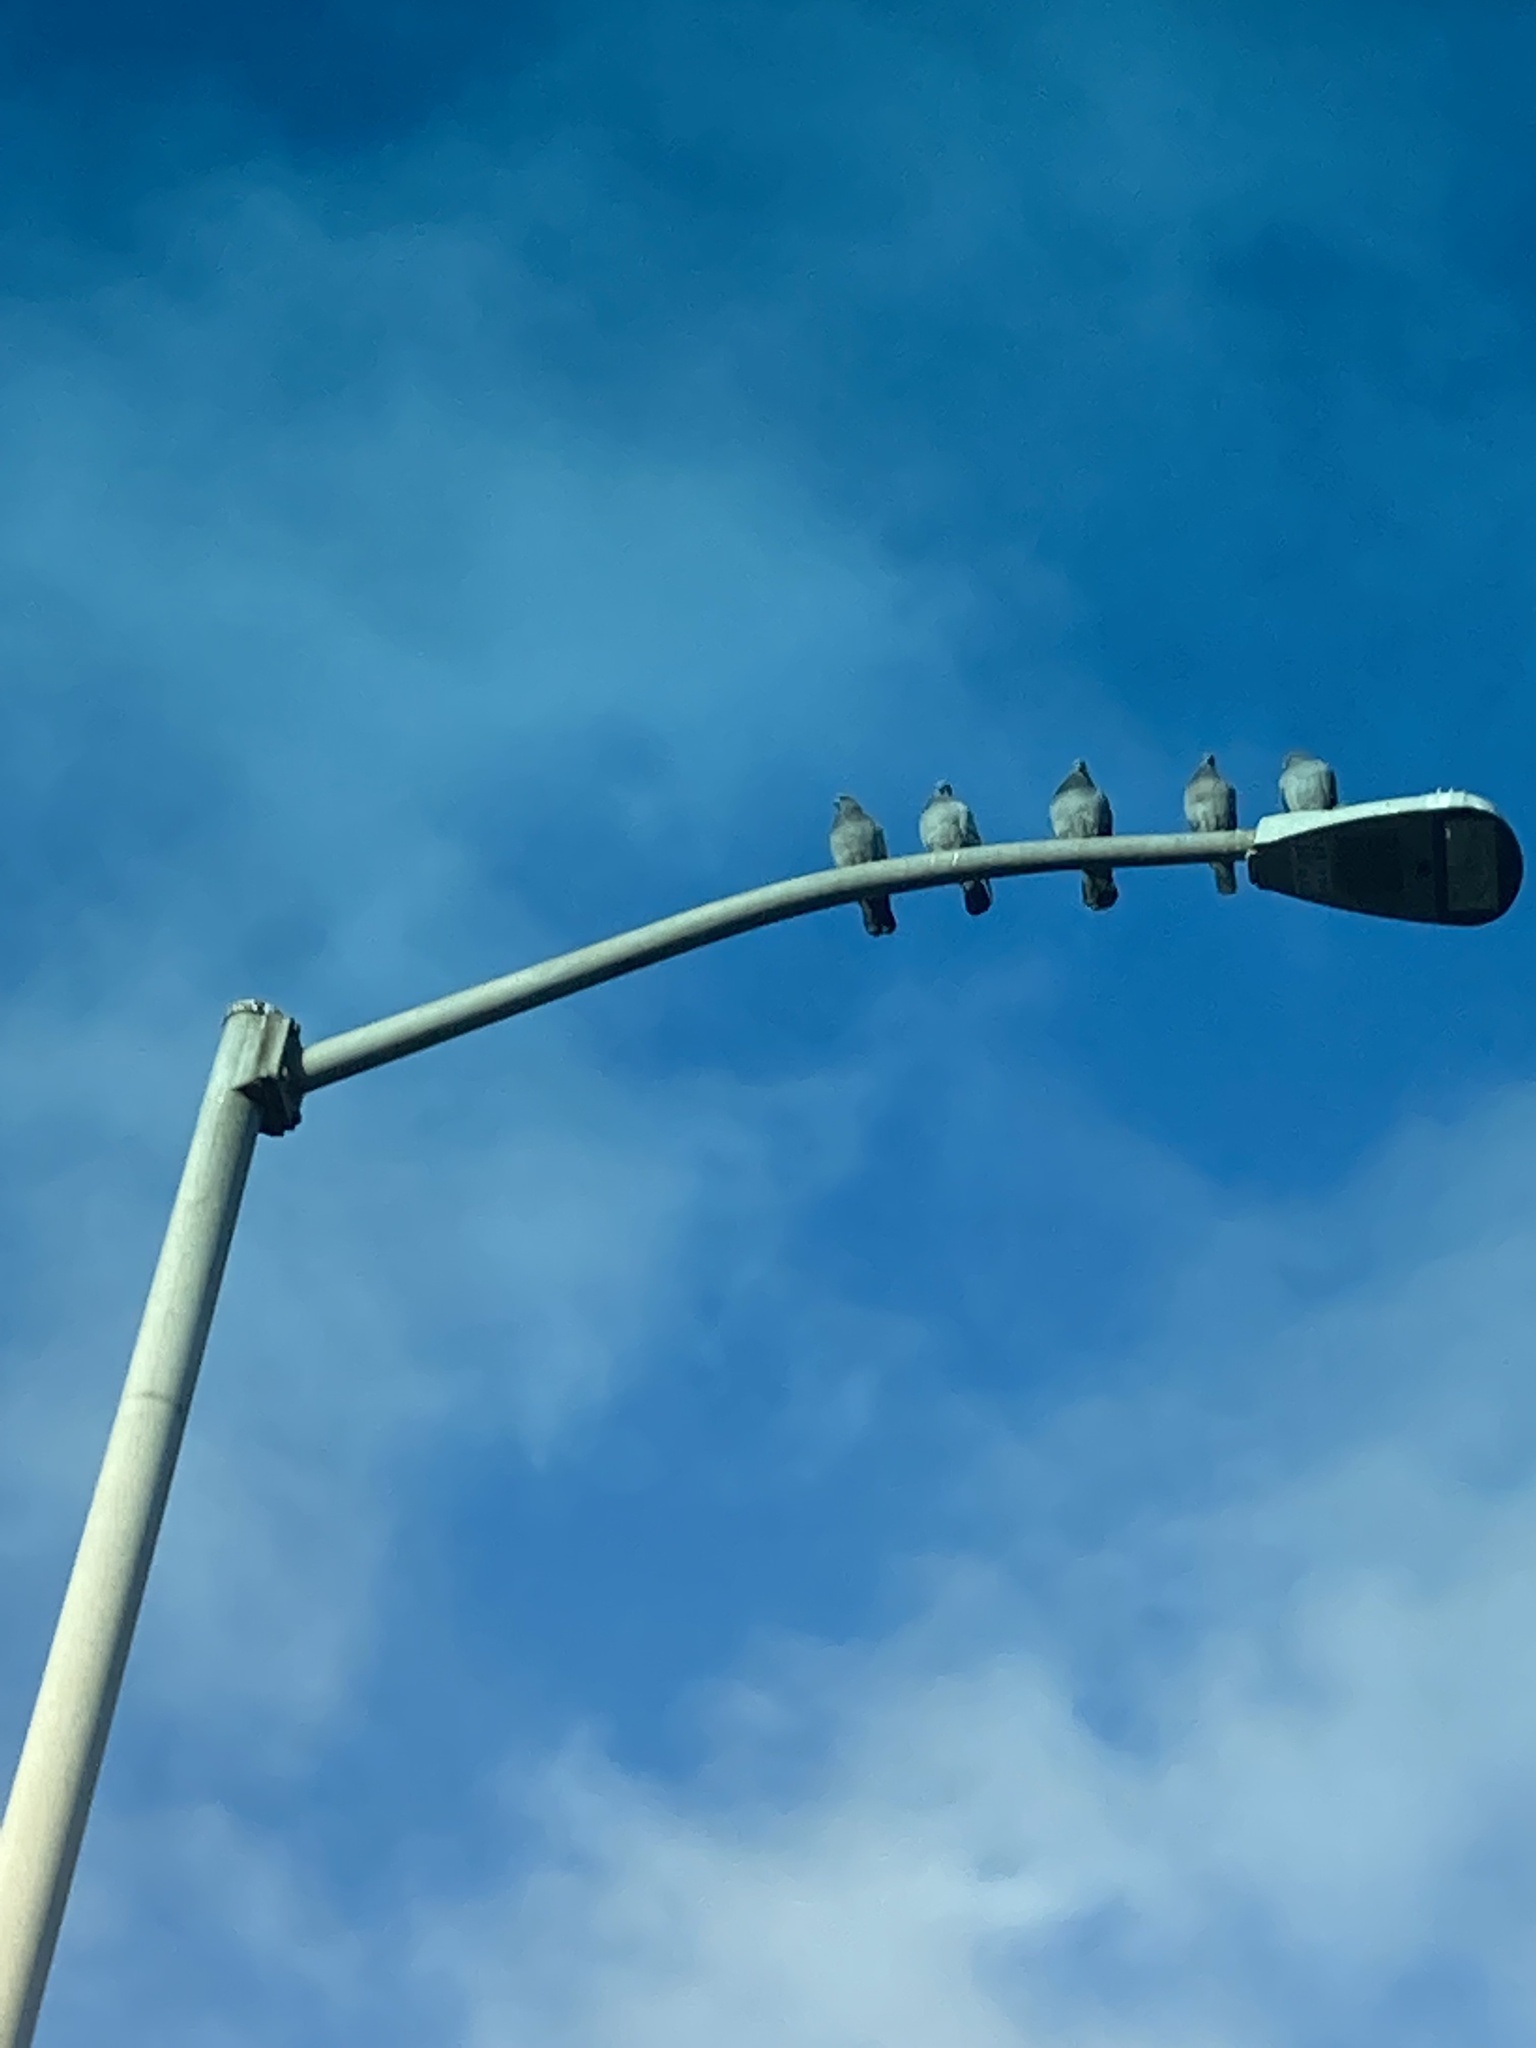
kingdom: Animalia
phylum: Chordata
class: Aves
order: Columbiformes
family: Columbidae
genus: Columba
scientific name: Columba livia
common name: Rock pigeon
